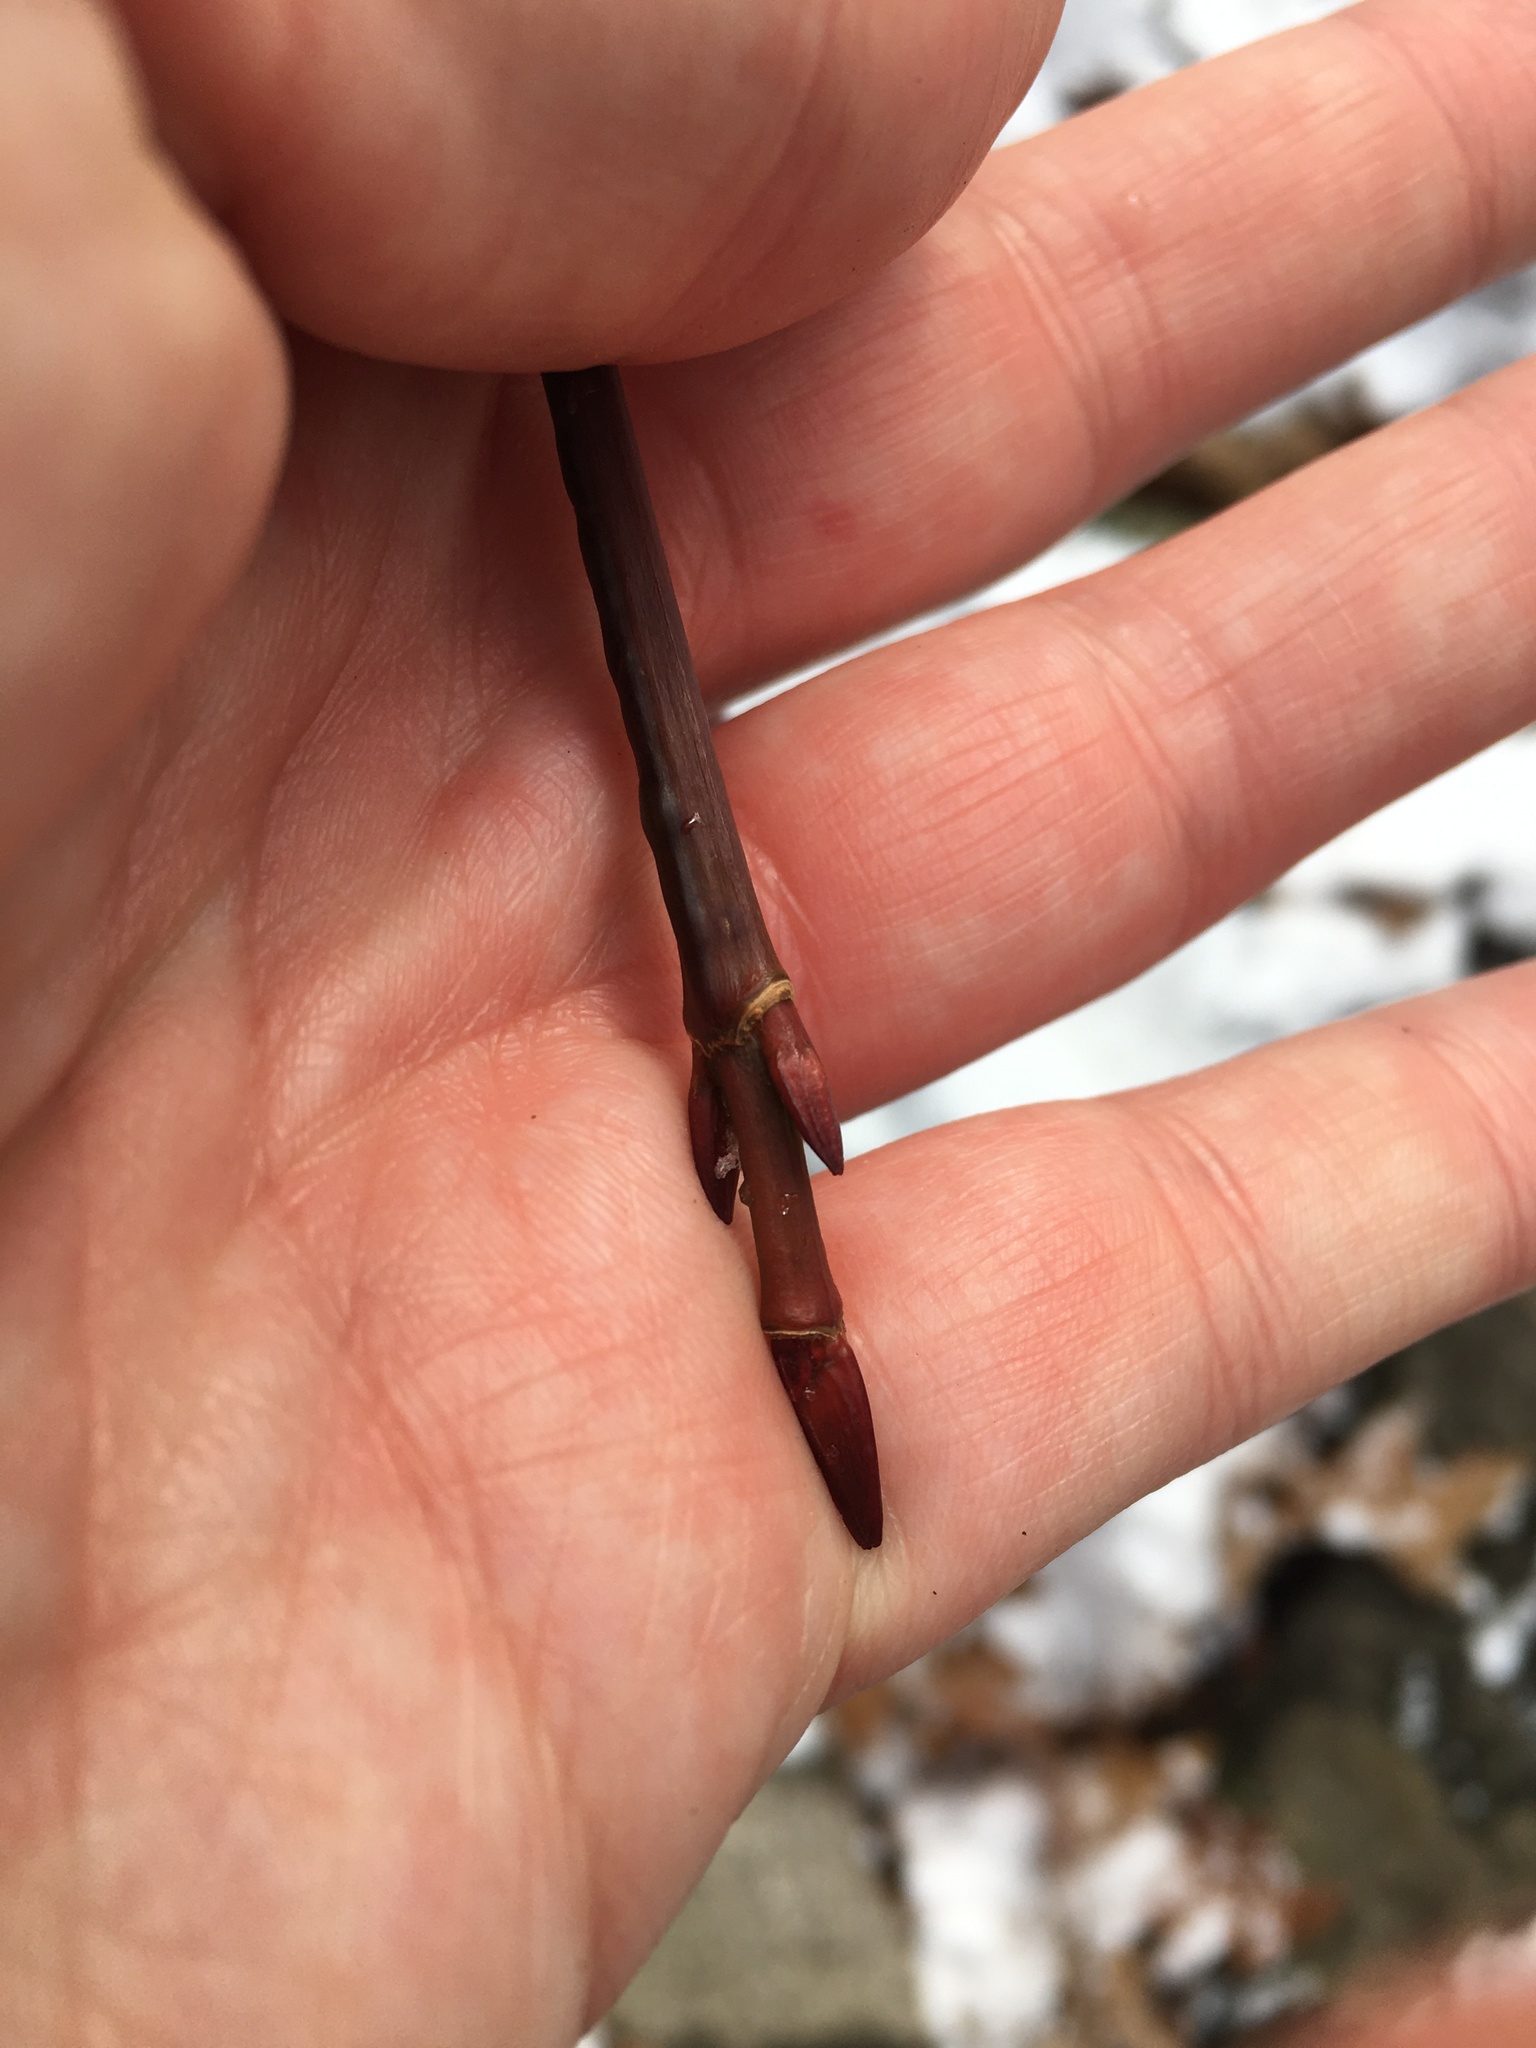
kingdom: Plantae
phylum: Tracheophyta
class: Magnoliopsida
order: Sapindales
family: Sapindaceae
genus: Acer
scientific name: Acer pensylvanicum
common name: Moosewood
